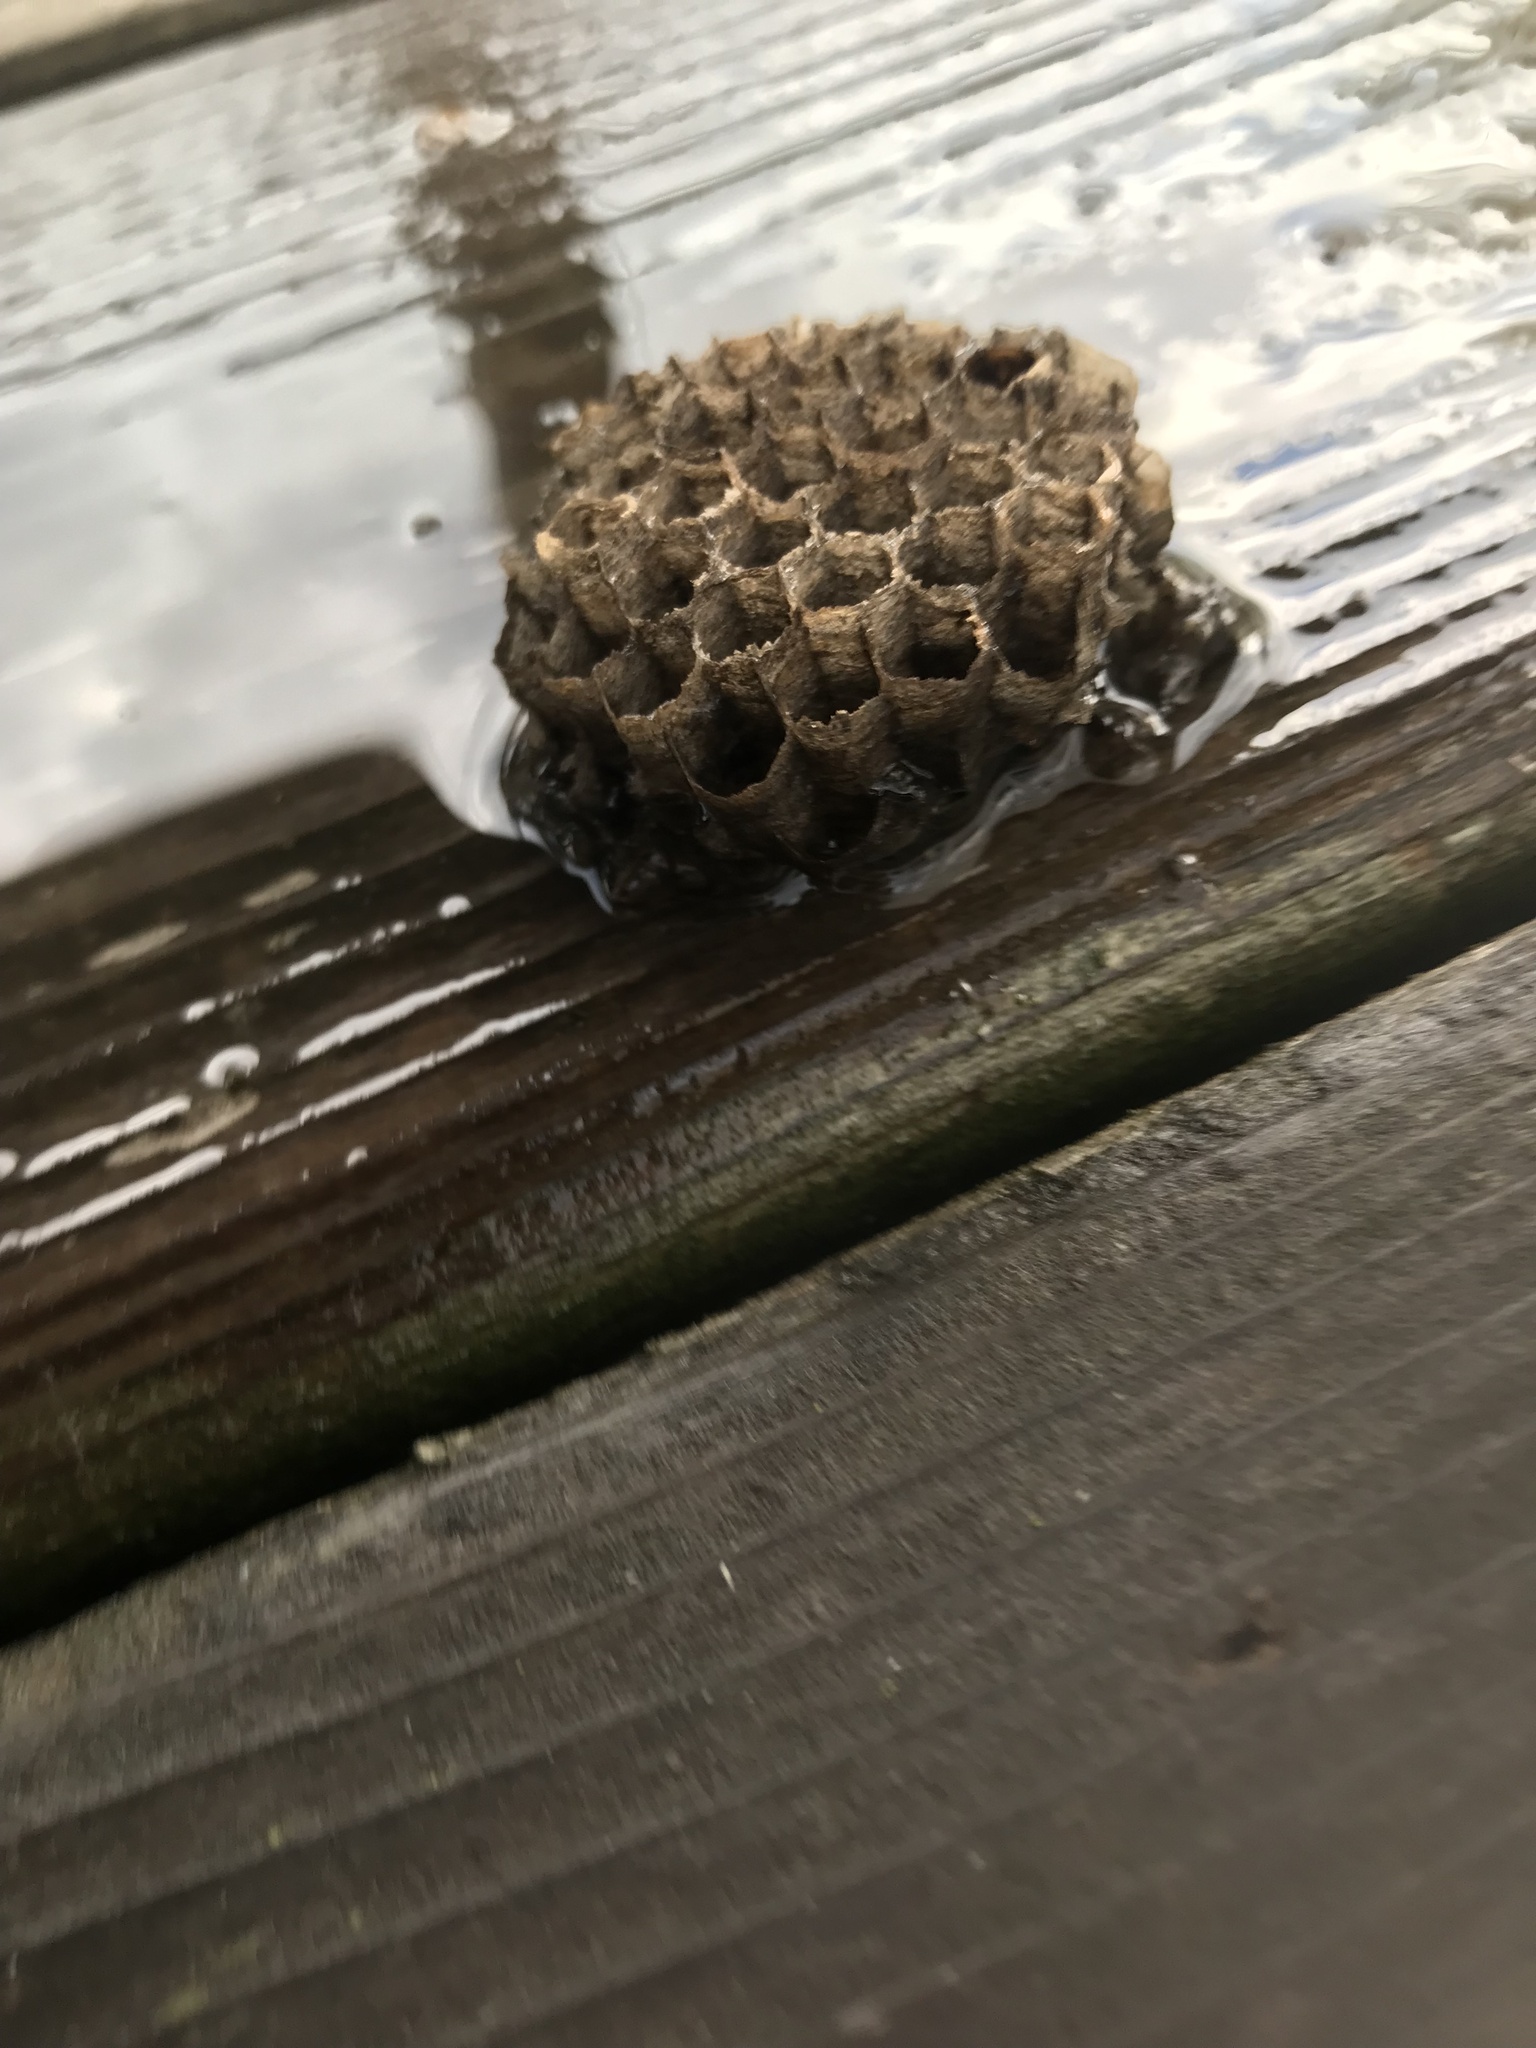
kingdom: Animalia
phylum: Arthropoda
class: Insecta
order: Hymenoptera
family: Vespidae
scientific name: Vespidae
